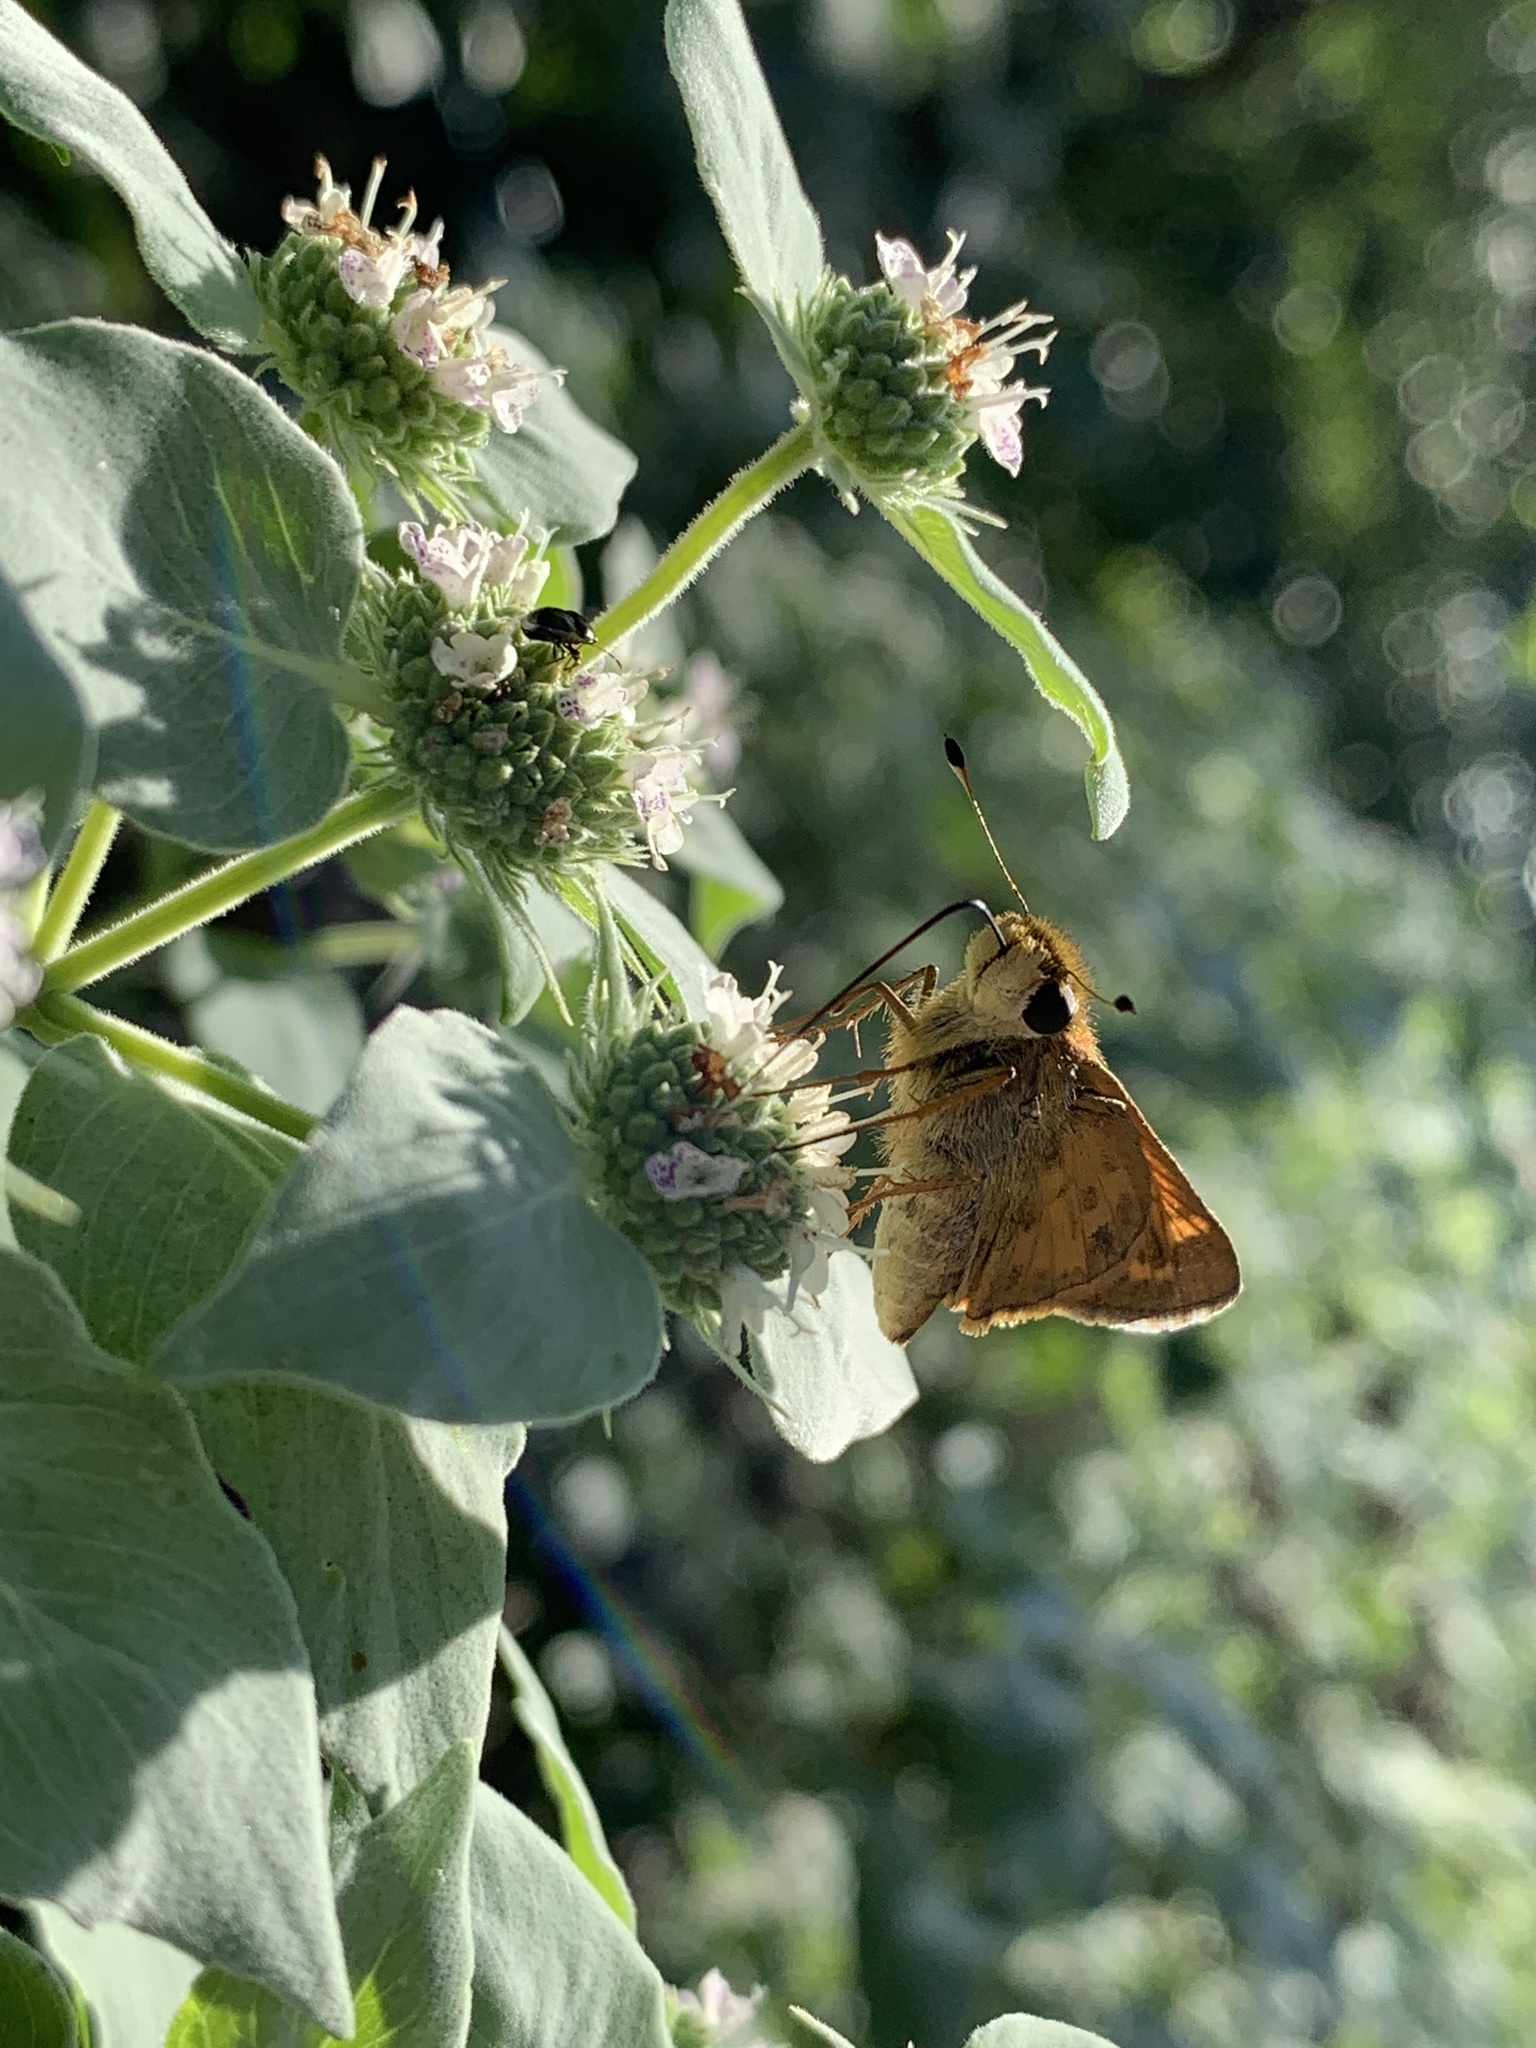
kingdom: Animalia
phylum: Arthropoda
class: Insecta
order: Lepidoptera
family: Hesperiidae
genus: Atalopedes
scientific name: Atalopedes
